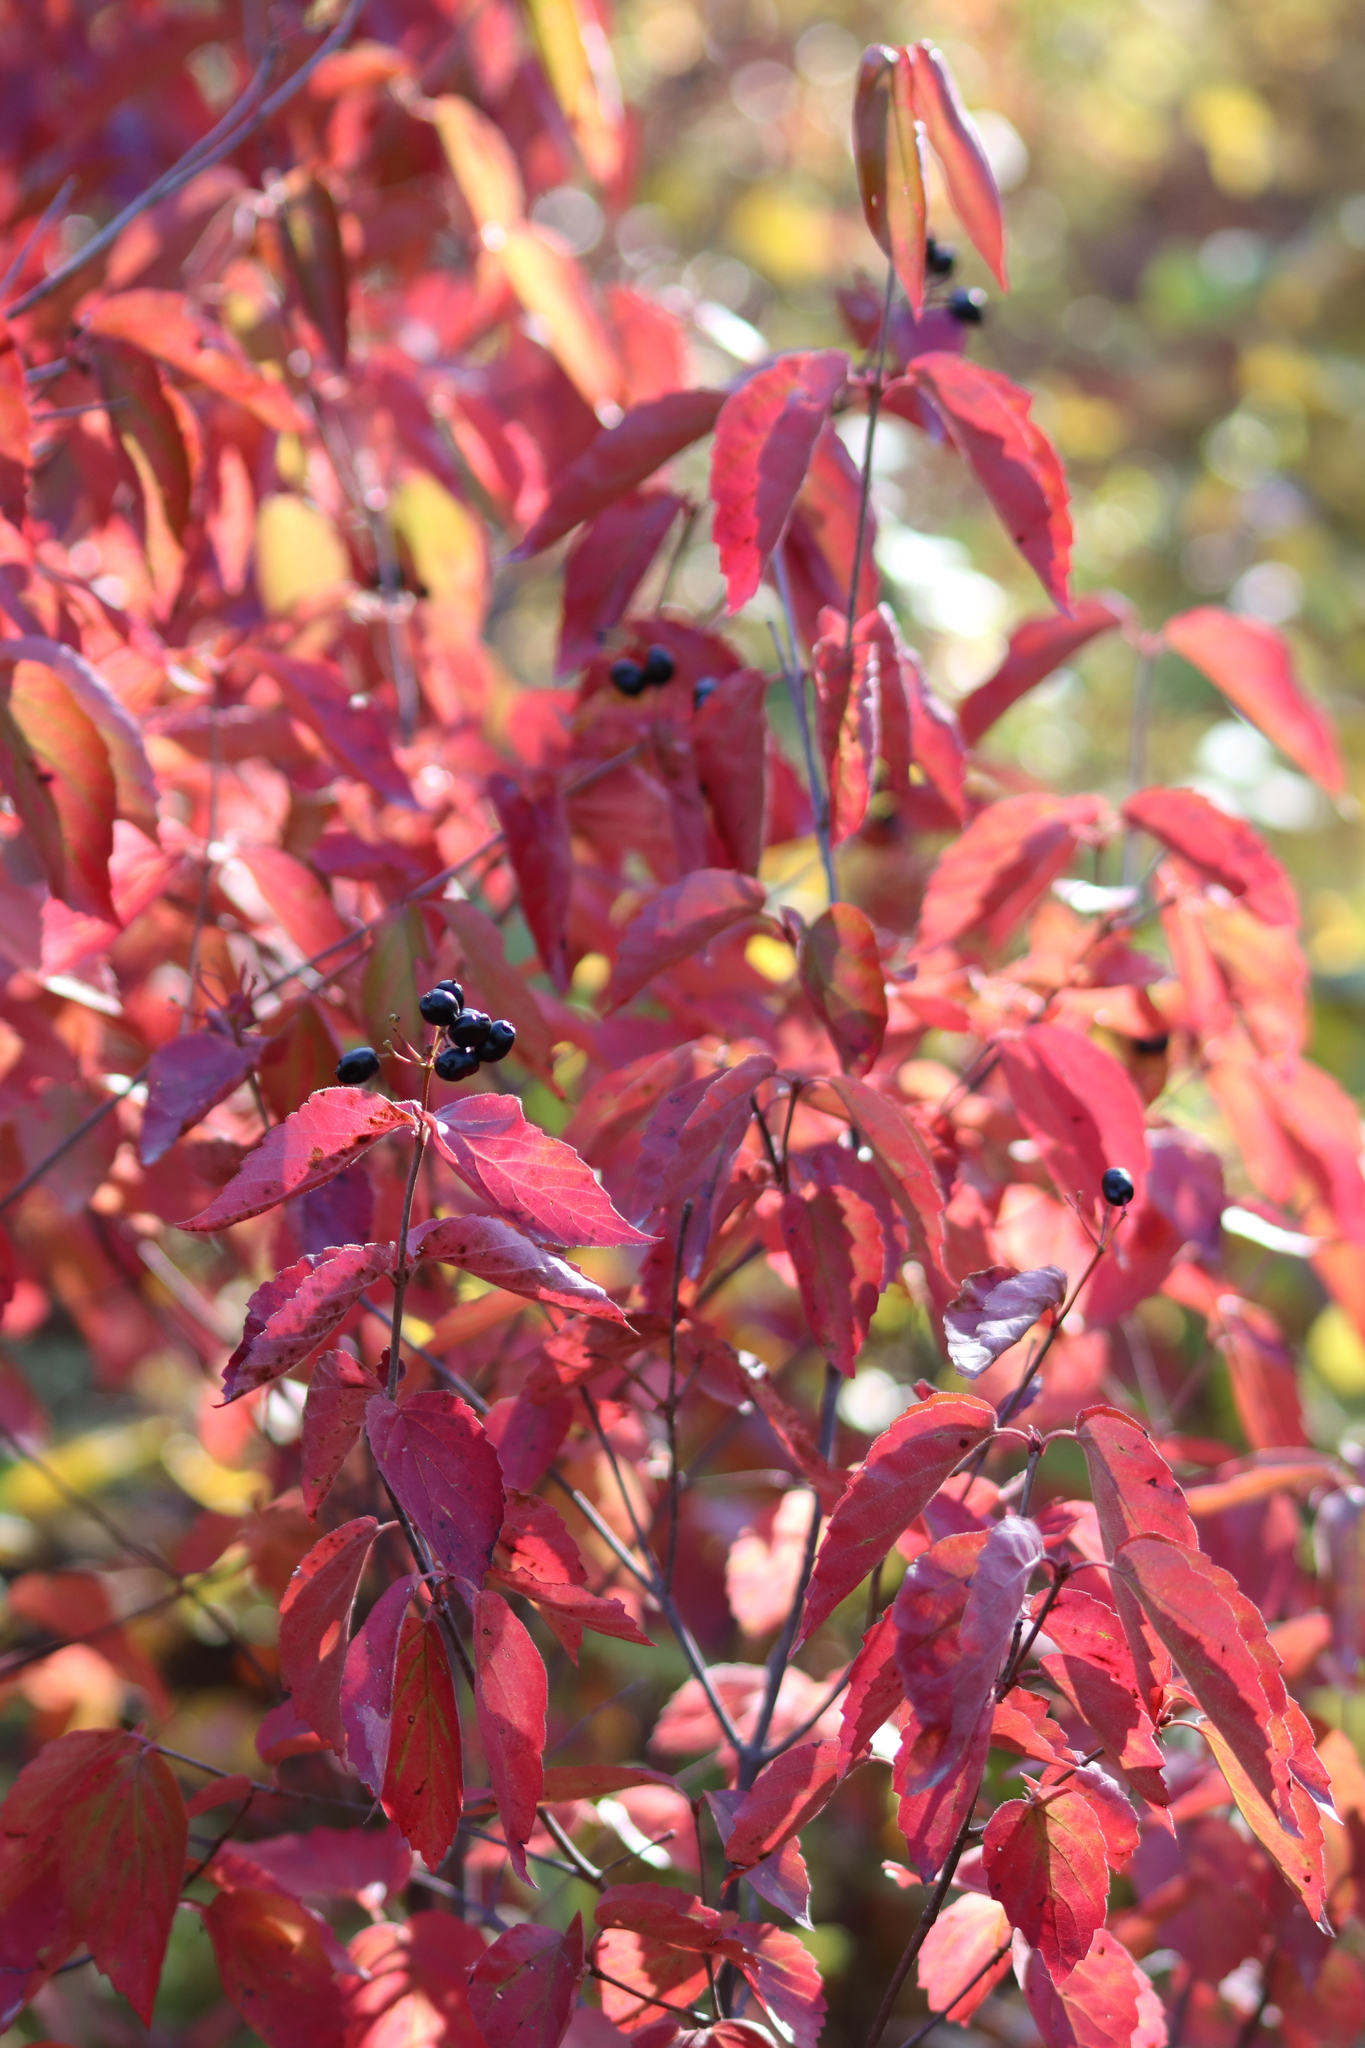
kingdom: Plantae
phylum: Tracheophyta
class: Magnoliopsida
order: Dipsacales
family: Viburnaceae
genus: Viburnum
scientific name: Viburnum rafinesqueanum
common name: Downy arrow-wood
